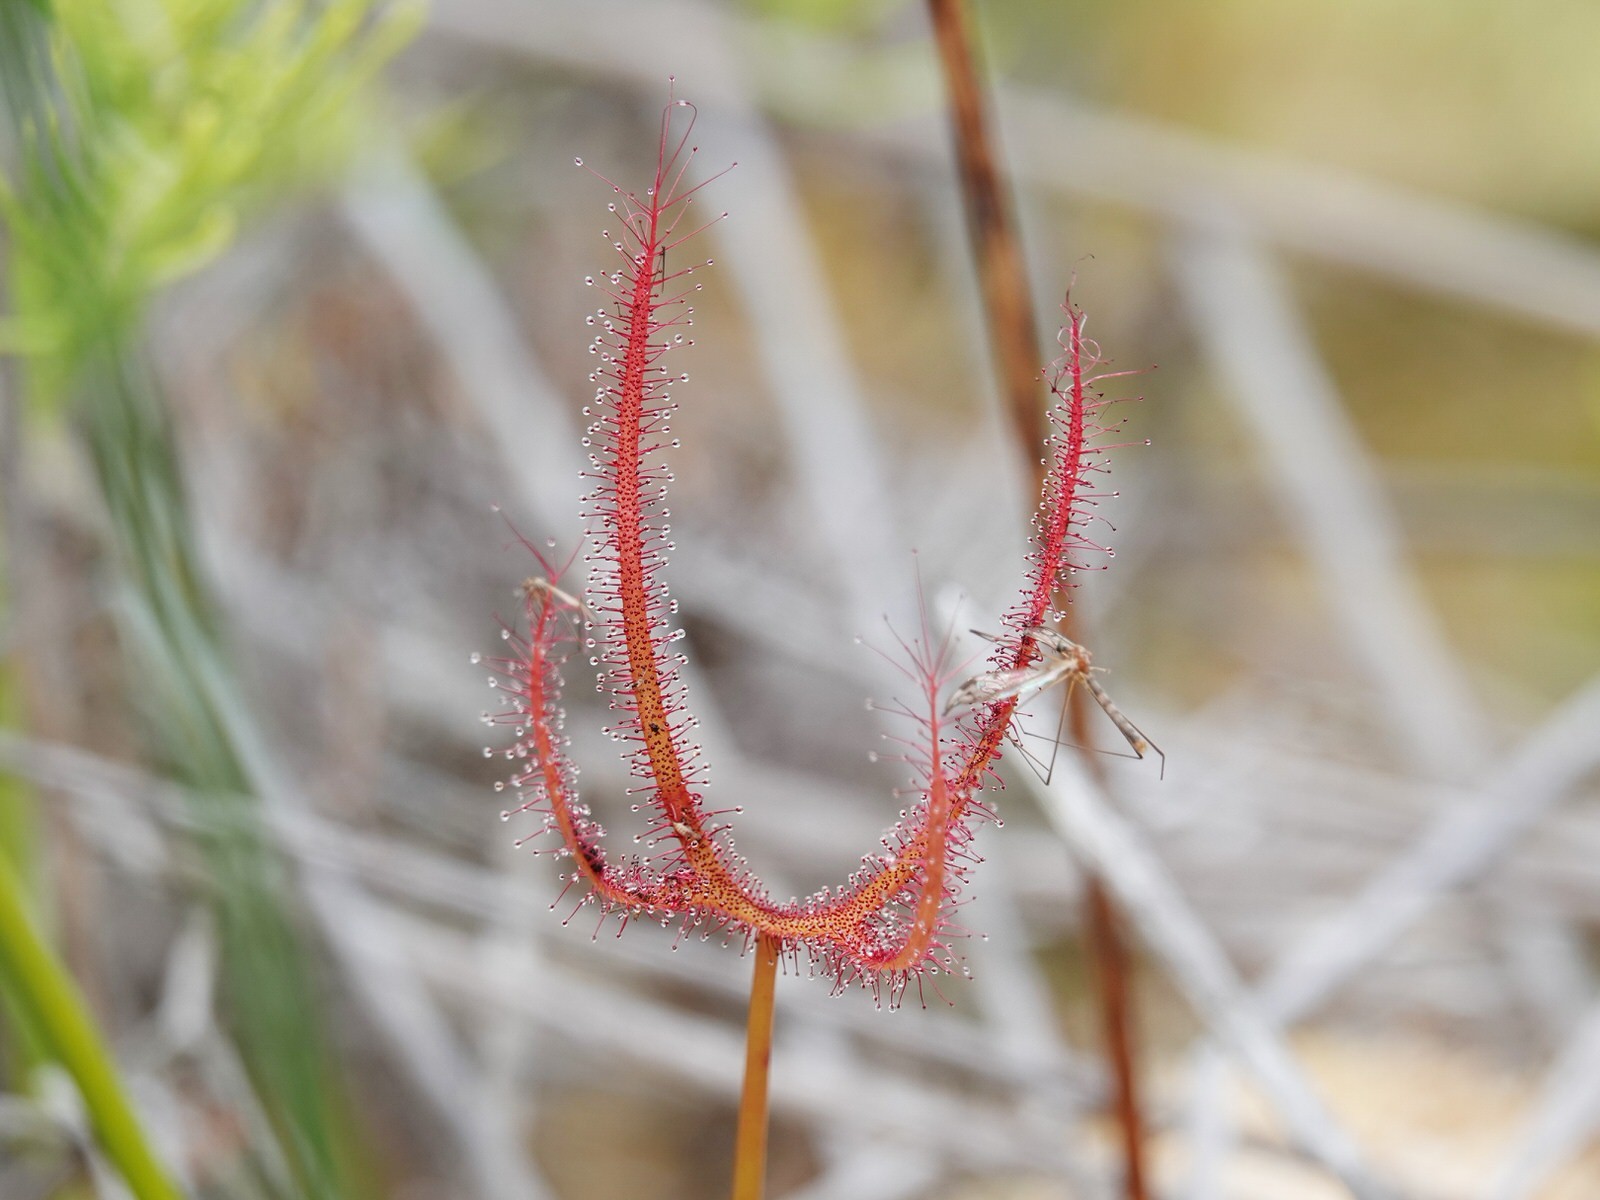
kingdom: Plantae
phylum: Tracheophyta
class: Magnoliopsida
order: Caryophyllales
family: Droseraceae
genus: Drosera
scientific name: Drosera binata
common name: Forked sundew
